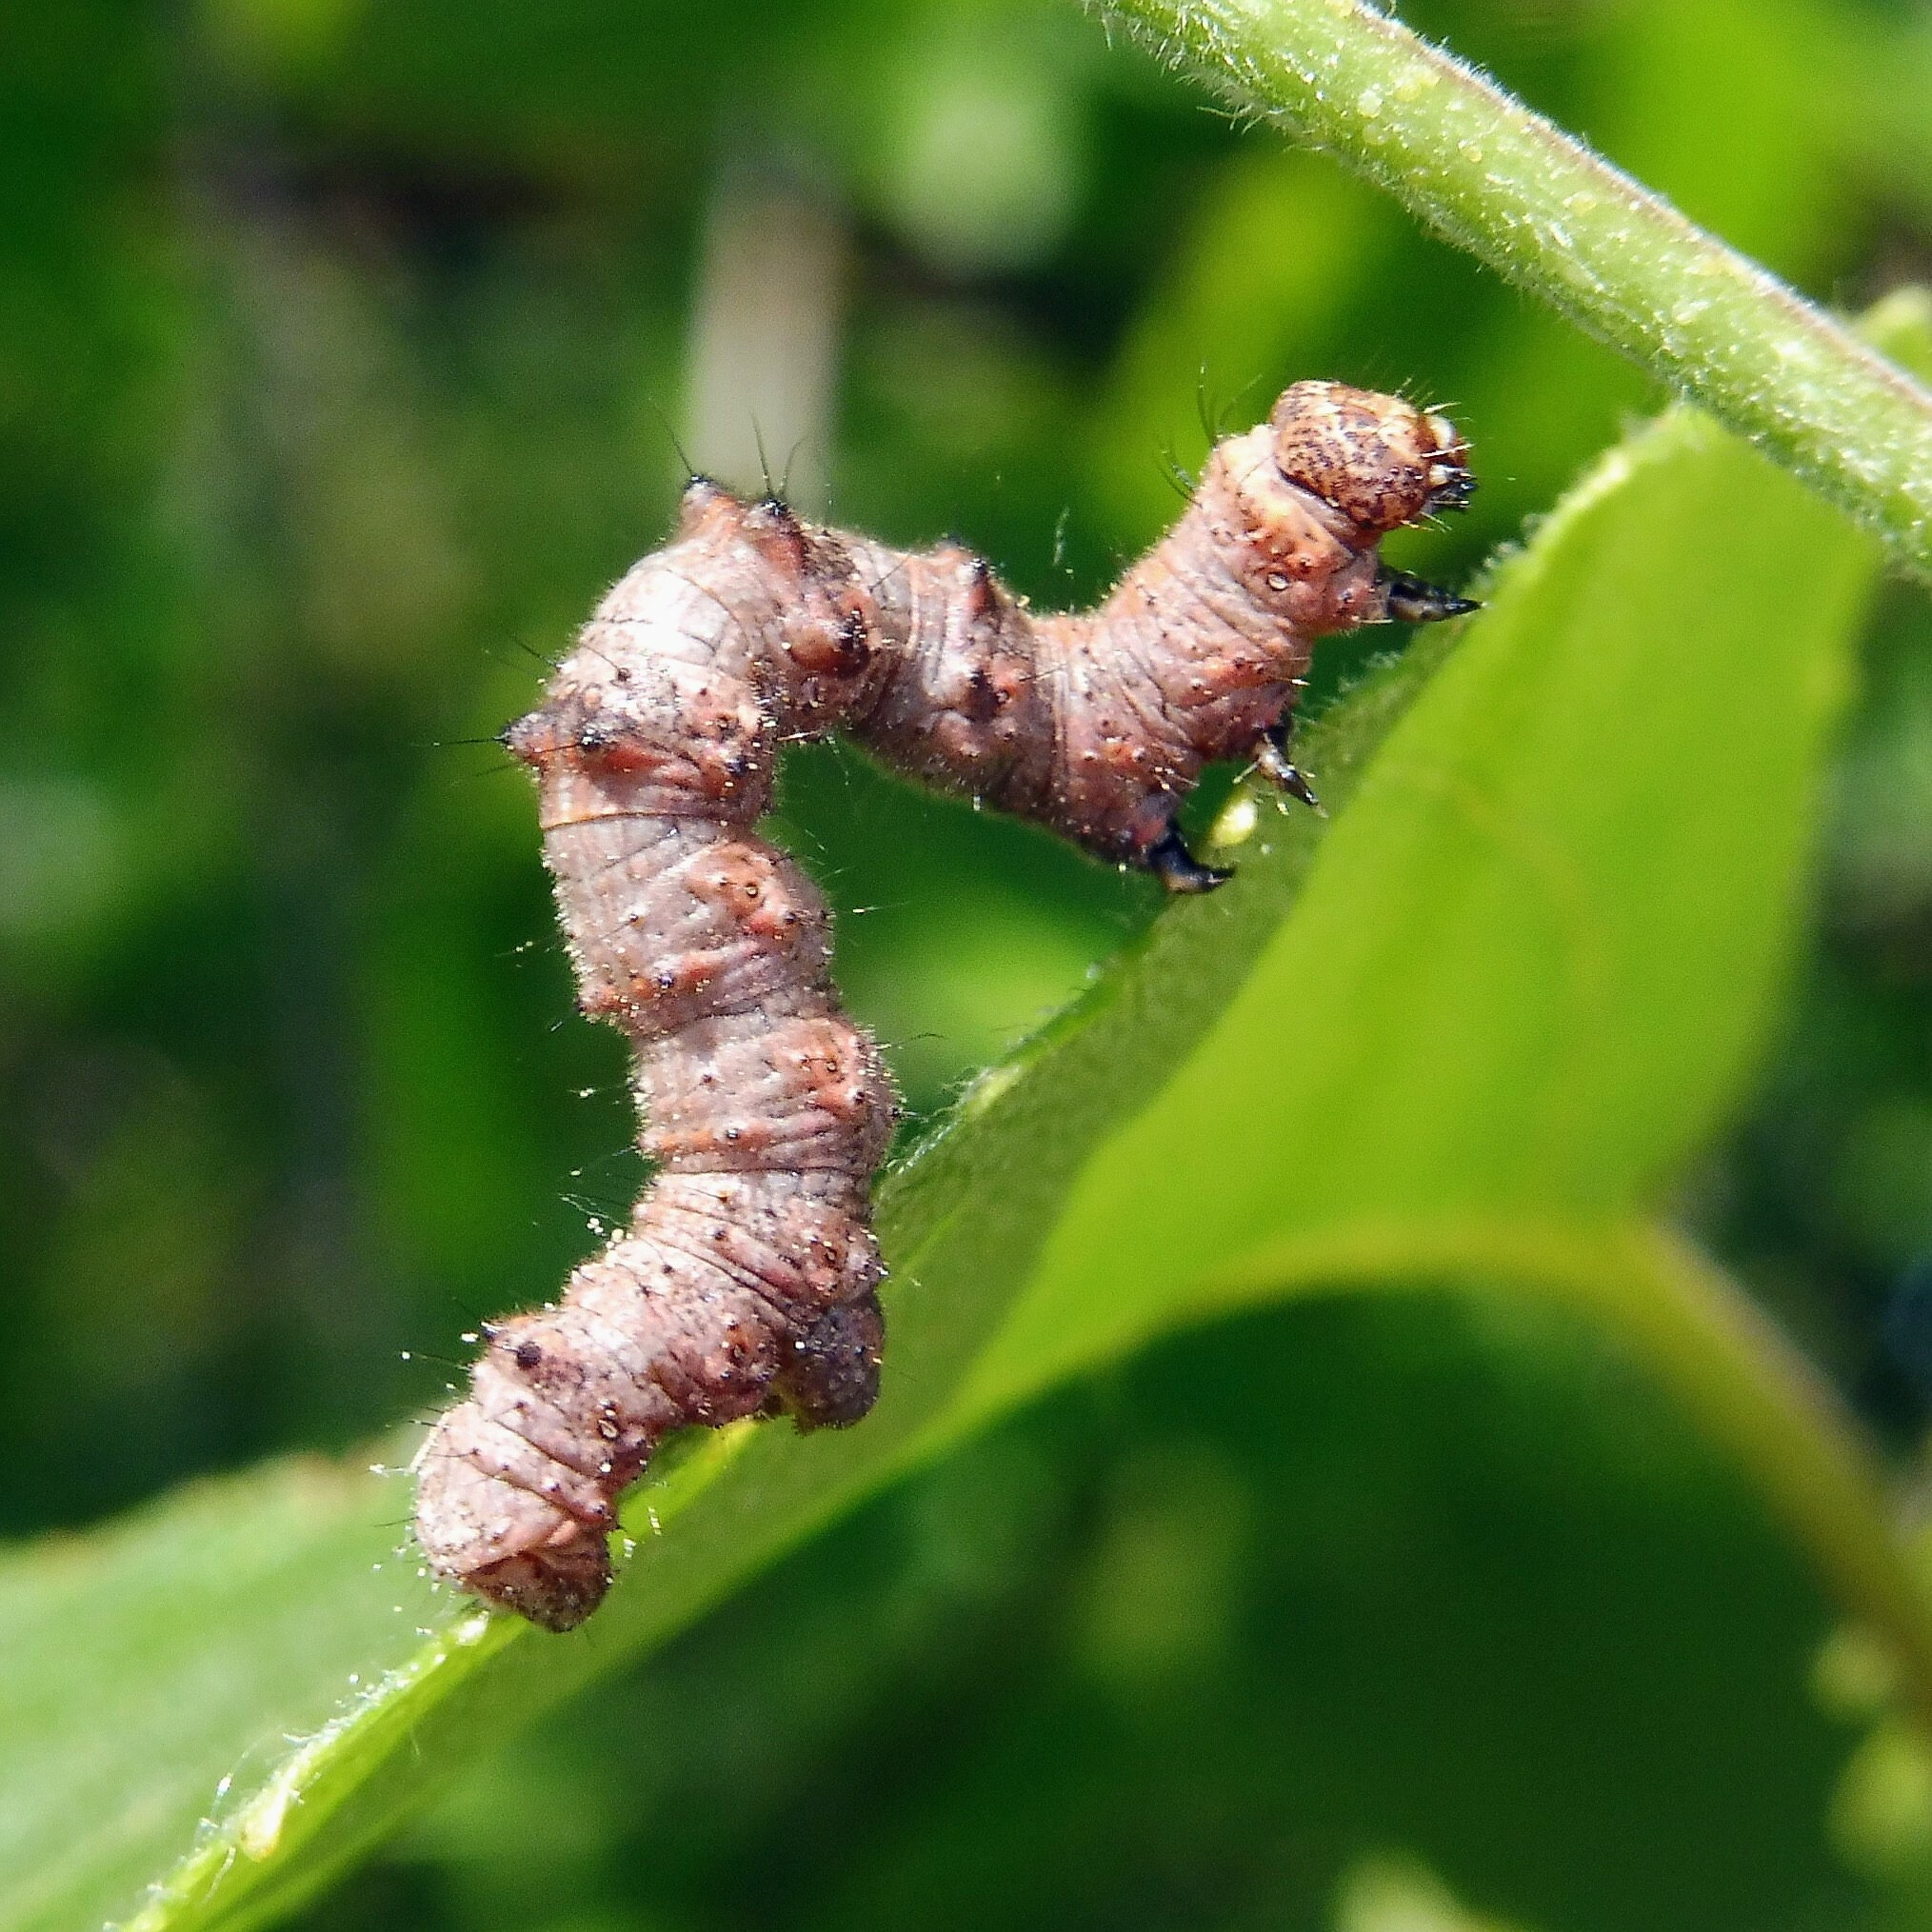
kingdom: Animalia
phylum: Arthropoda
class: Insecta
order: Lepidoptera
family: Geometridae
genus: Phigalia
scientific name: Phigalia pilosaria
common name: Pale brindled beauty
